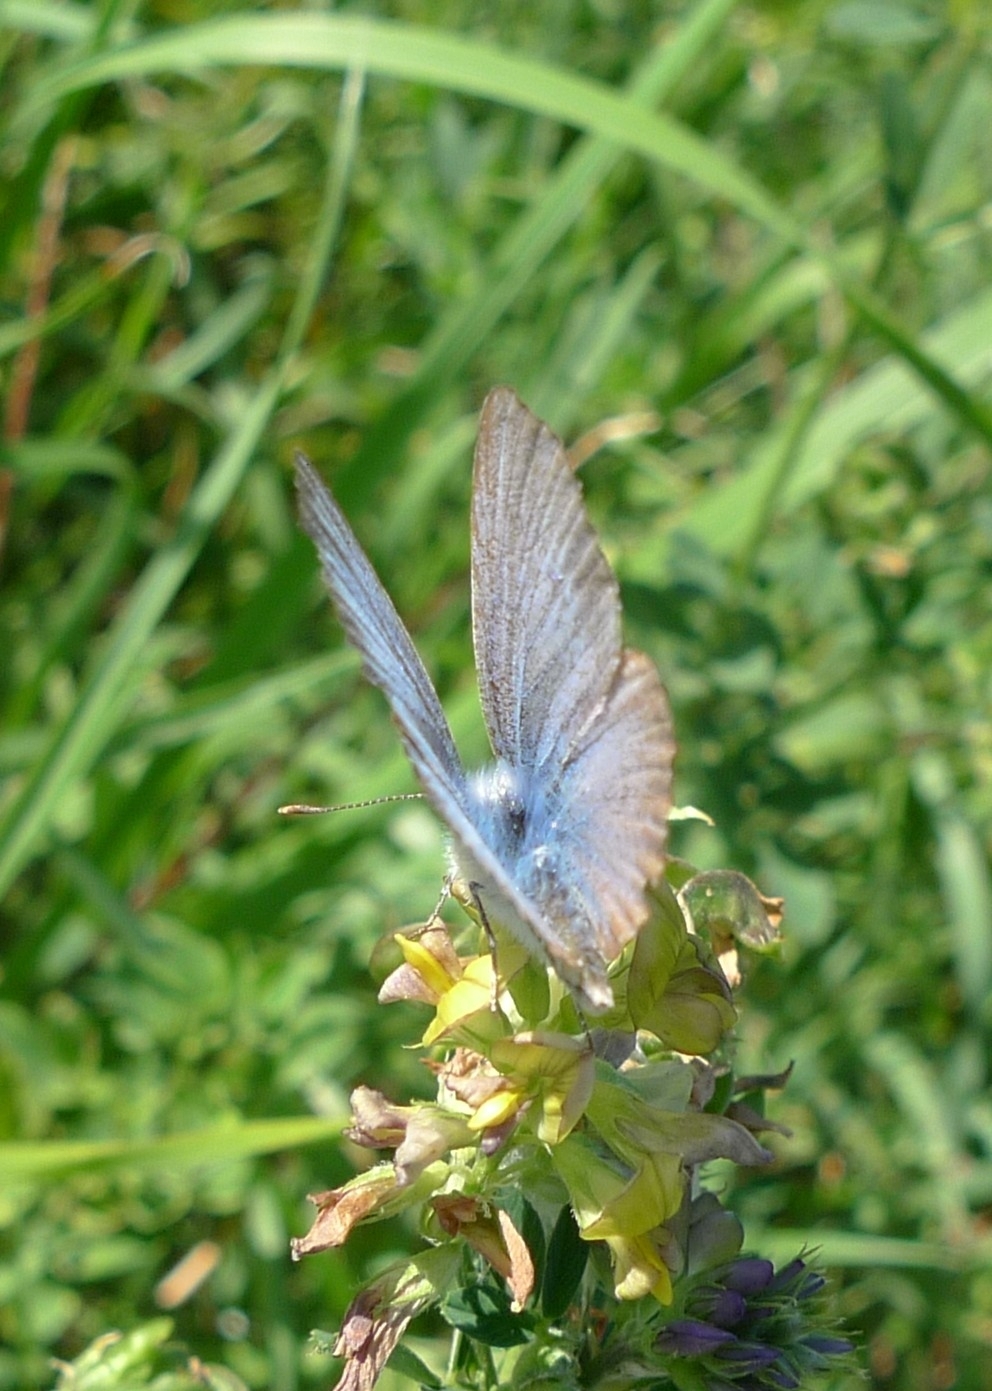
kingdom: Animalia
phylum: Arthropoda
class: Insecta
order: Lepidoptera
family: Lycaenidae
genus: Polyommatus
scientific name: Polyommatus icarus
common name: Common blue
